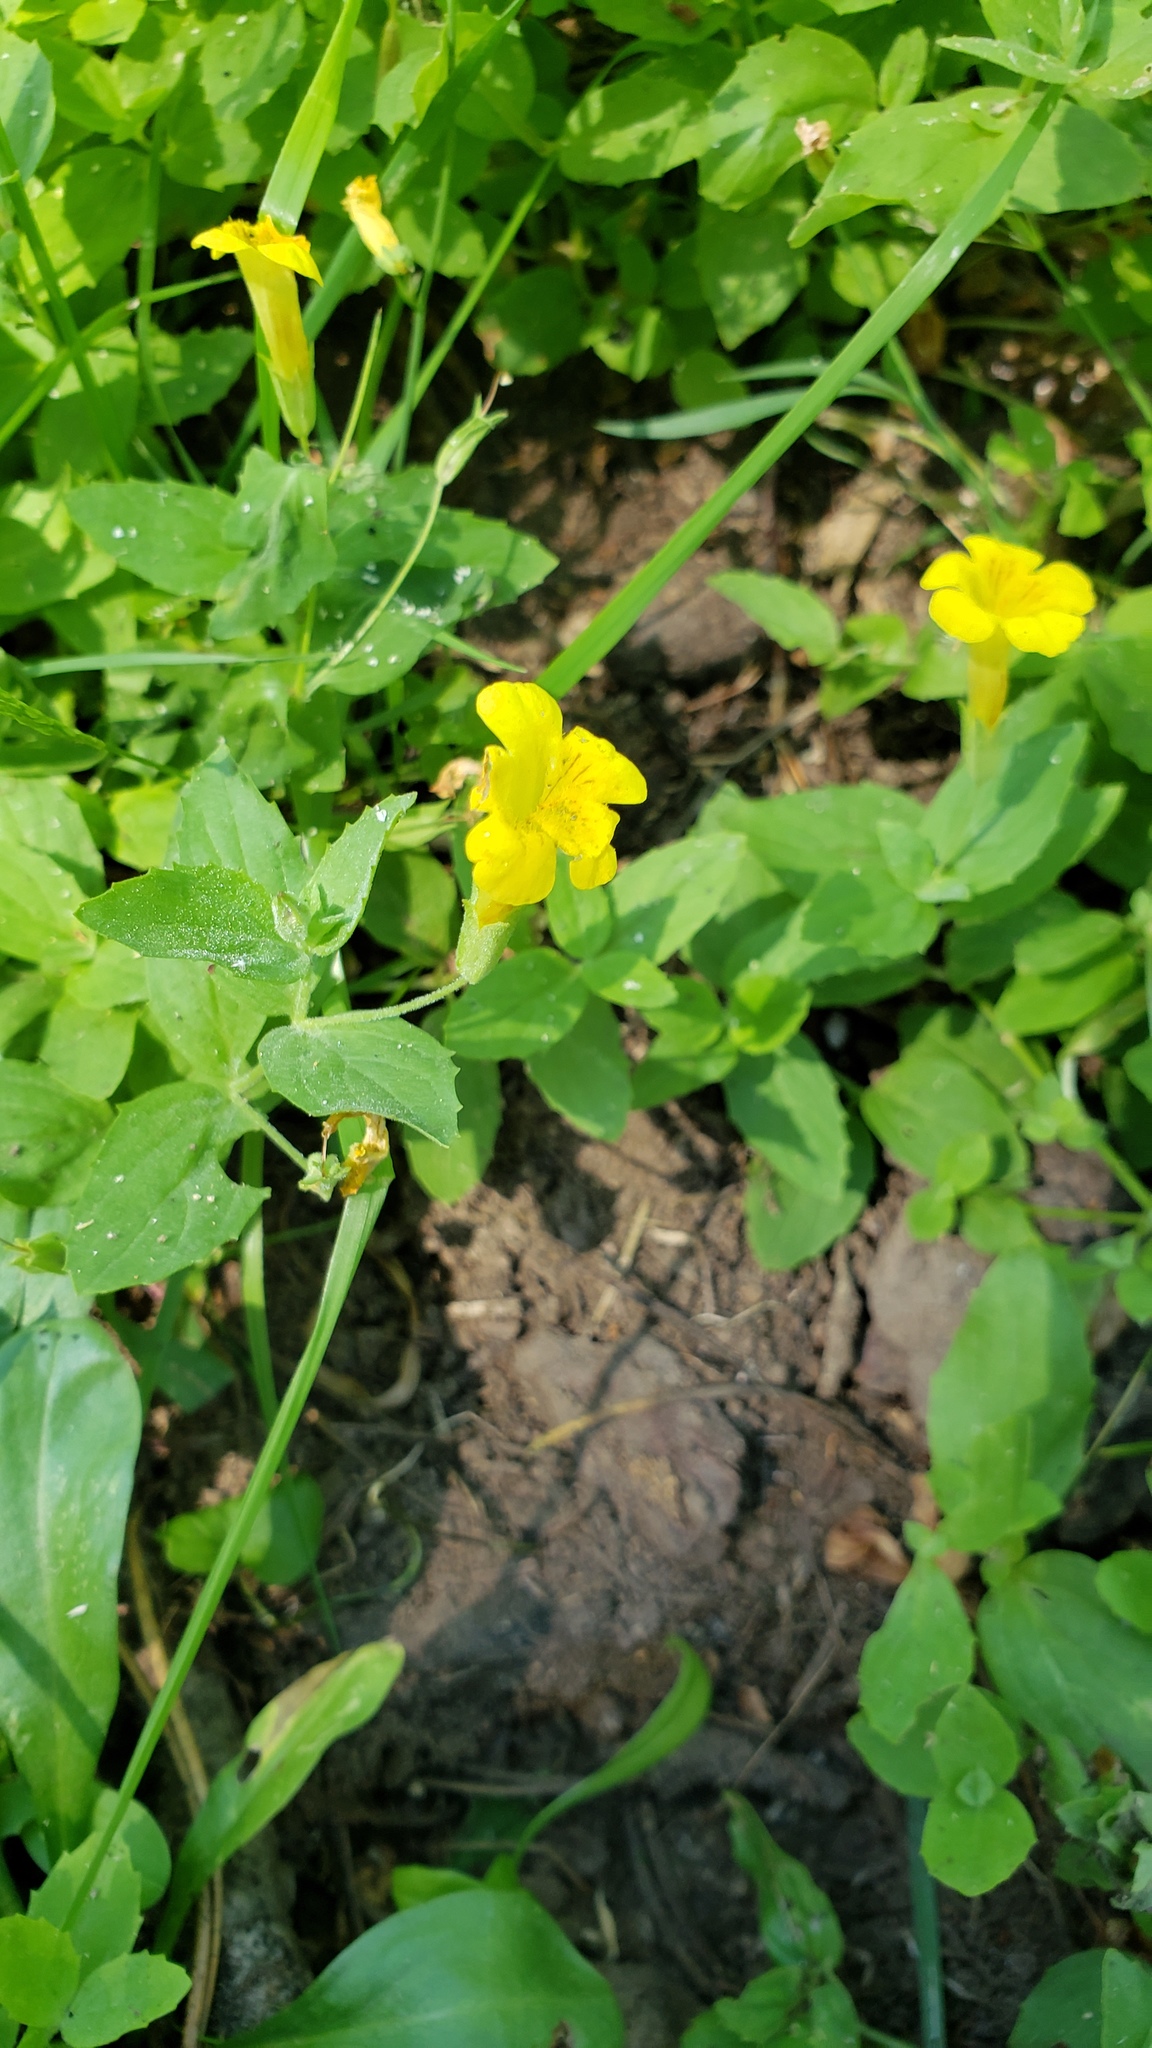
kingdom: Plantae
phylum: Tracheophyta
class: Magnoliopsida
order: Lamiales
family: Phrymaceae
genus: Erythranthe
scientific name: Erythranthe moschata
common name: Muskflower
